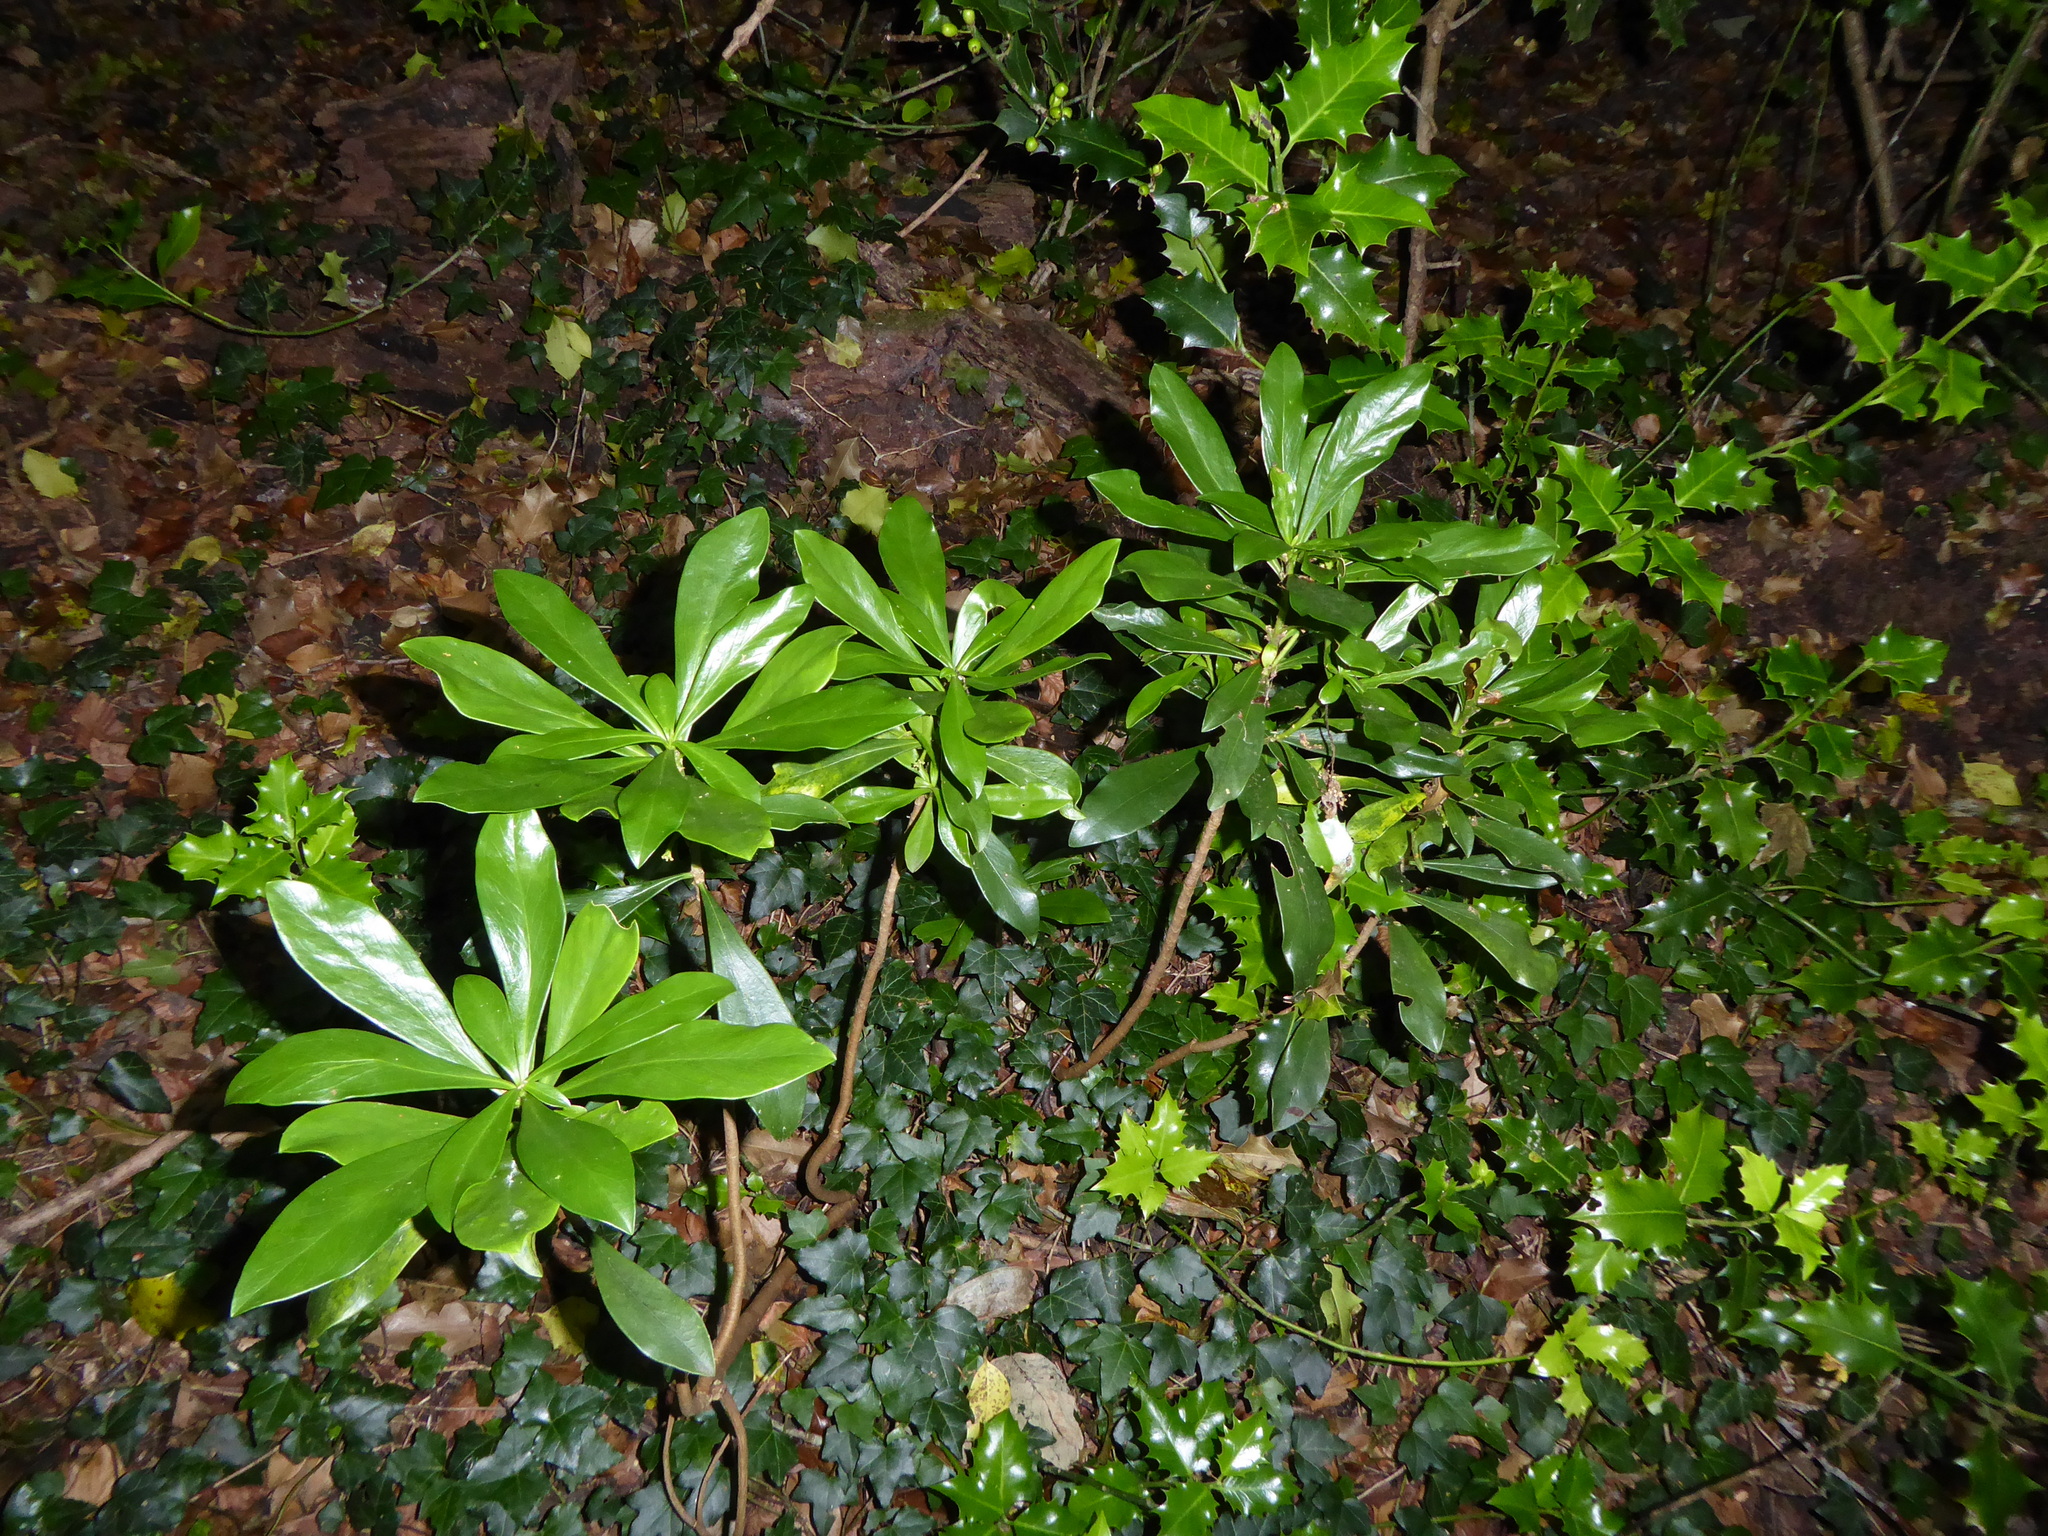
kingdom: Plantae
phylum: Tracheophyta
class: Magnoliopsida
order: Malvales
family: Thymelaeaceae
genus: Daphne
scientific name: Daphne laureola
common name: Spurge-laurel
